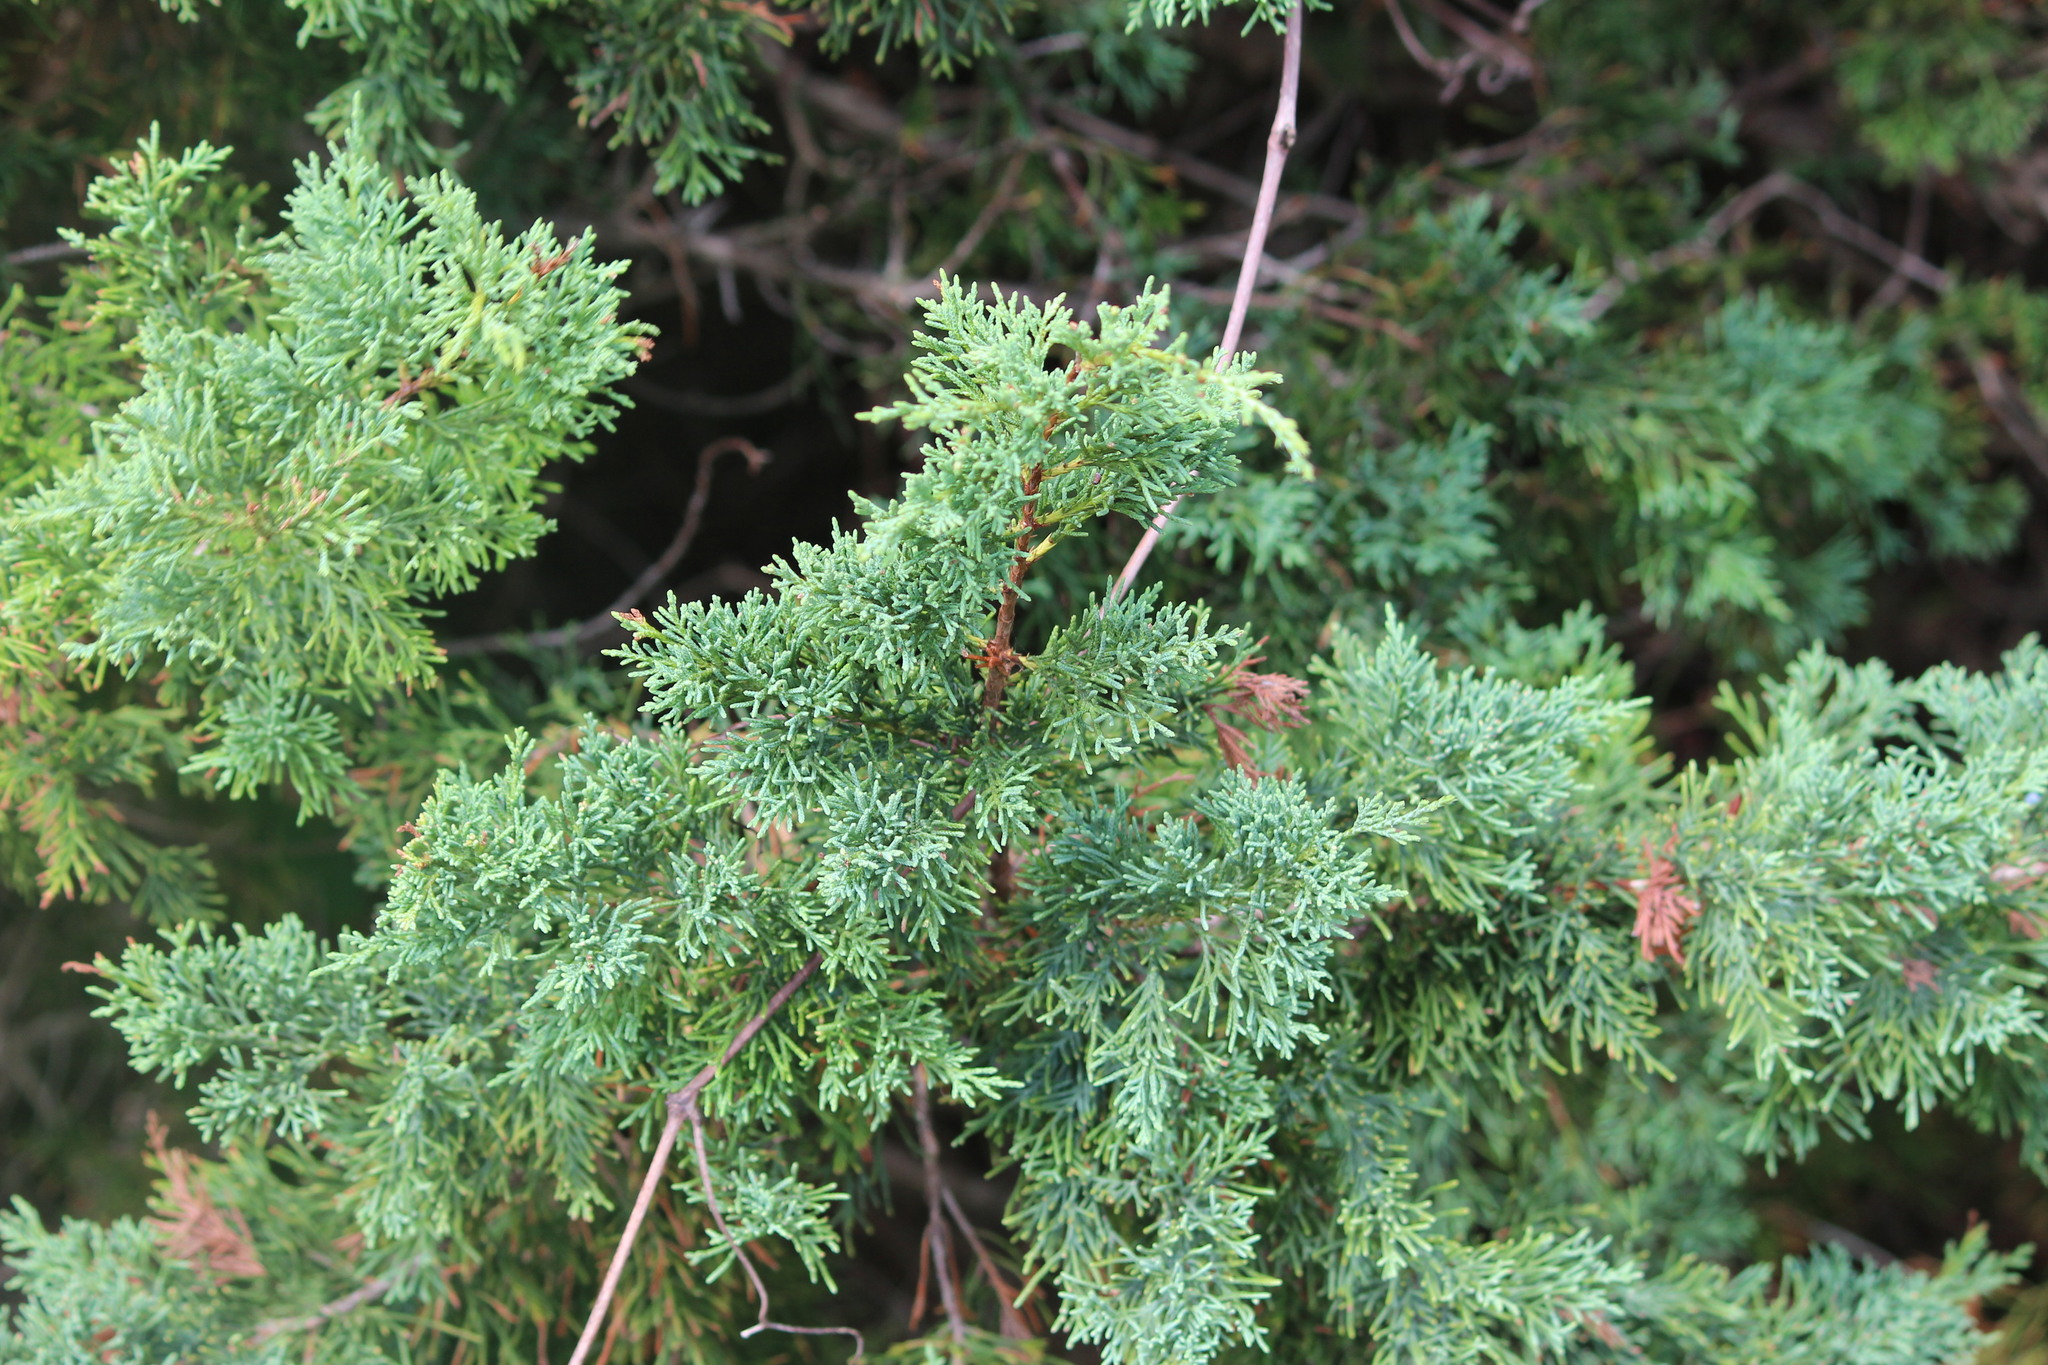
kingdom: Plantae
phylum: Tracheophyta
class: Pinopsida
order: Pinales
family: Cupressaceae
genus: Juniperus
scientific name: Juniperus virginiana
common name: Red juniper
